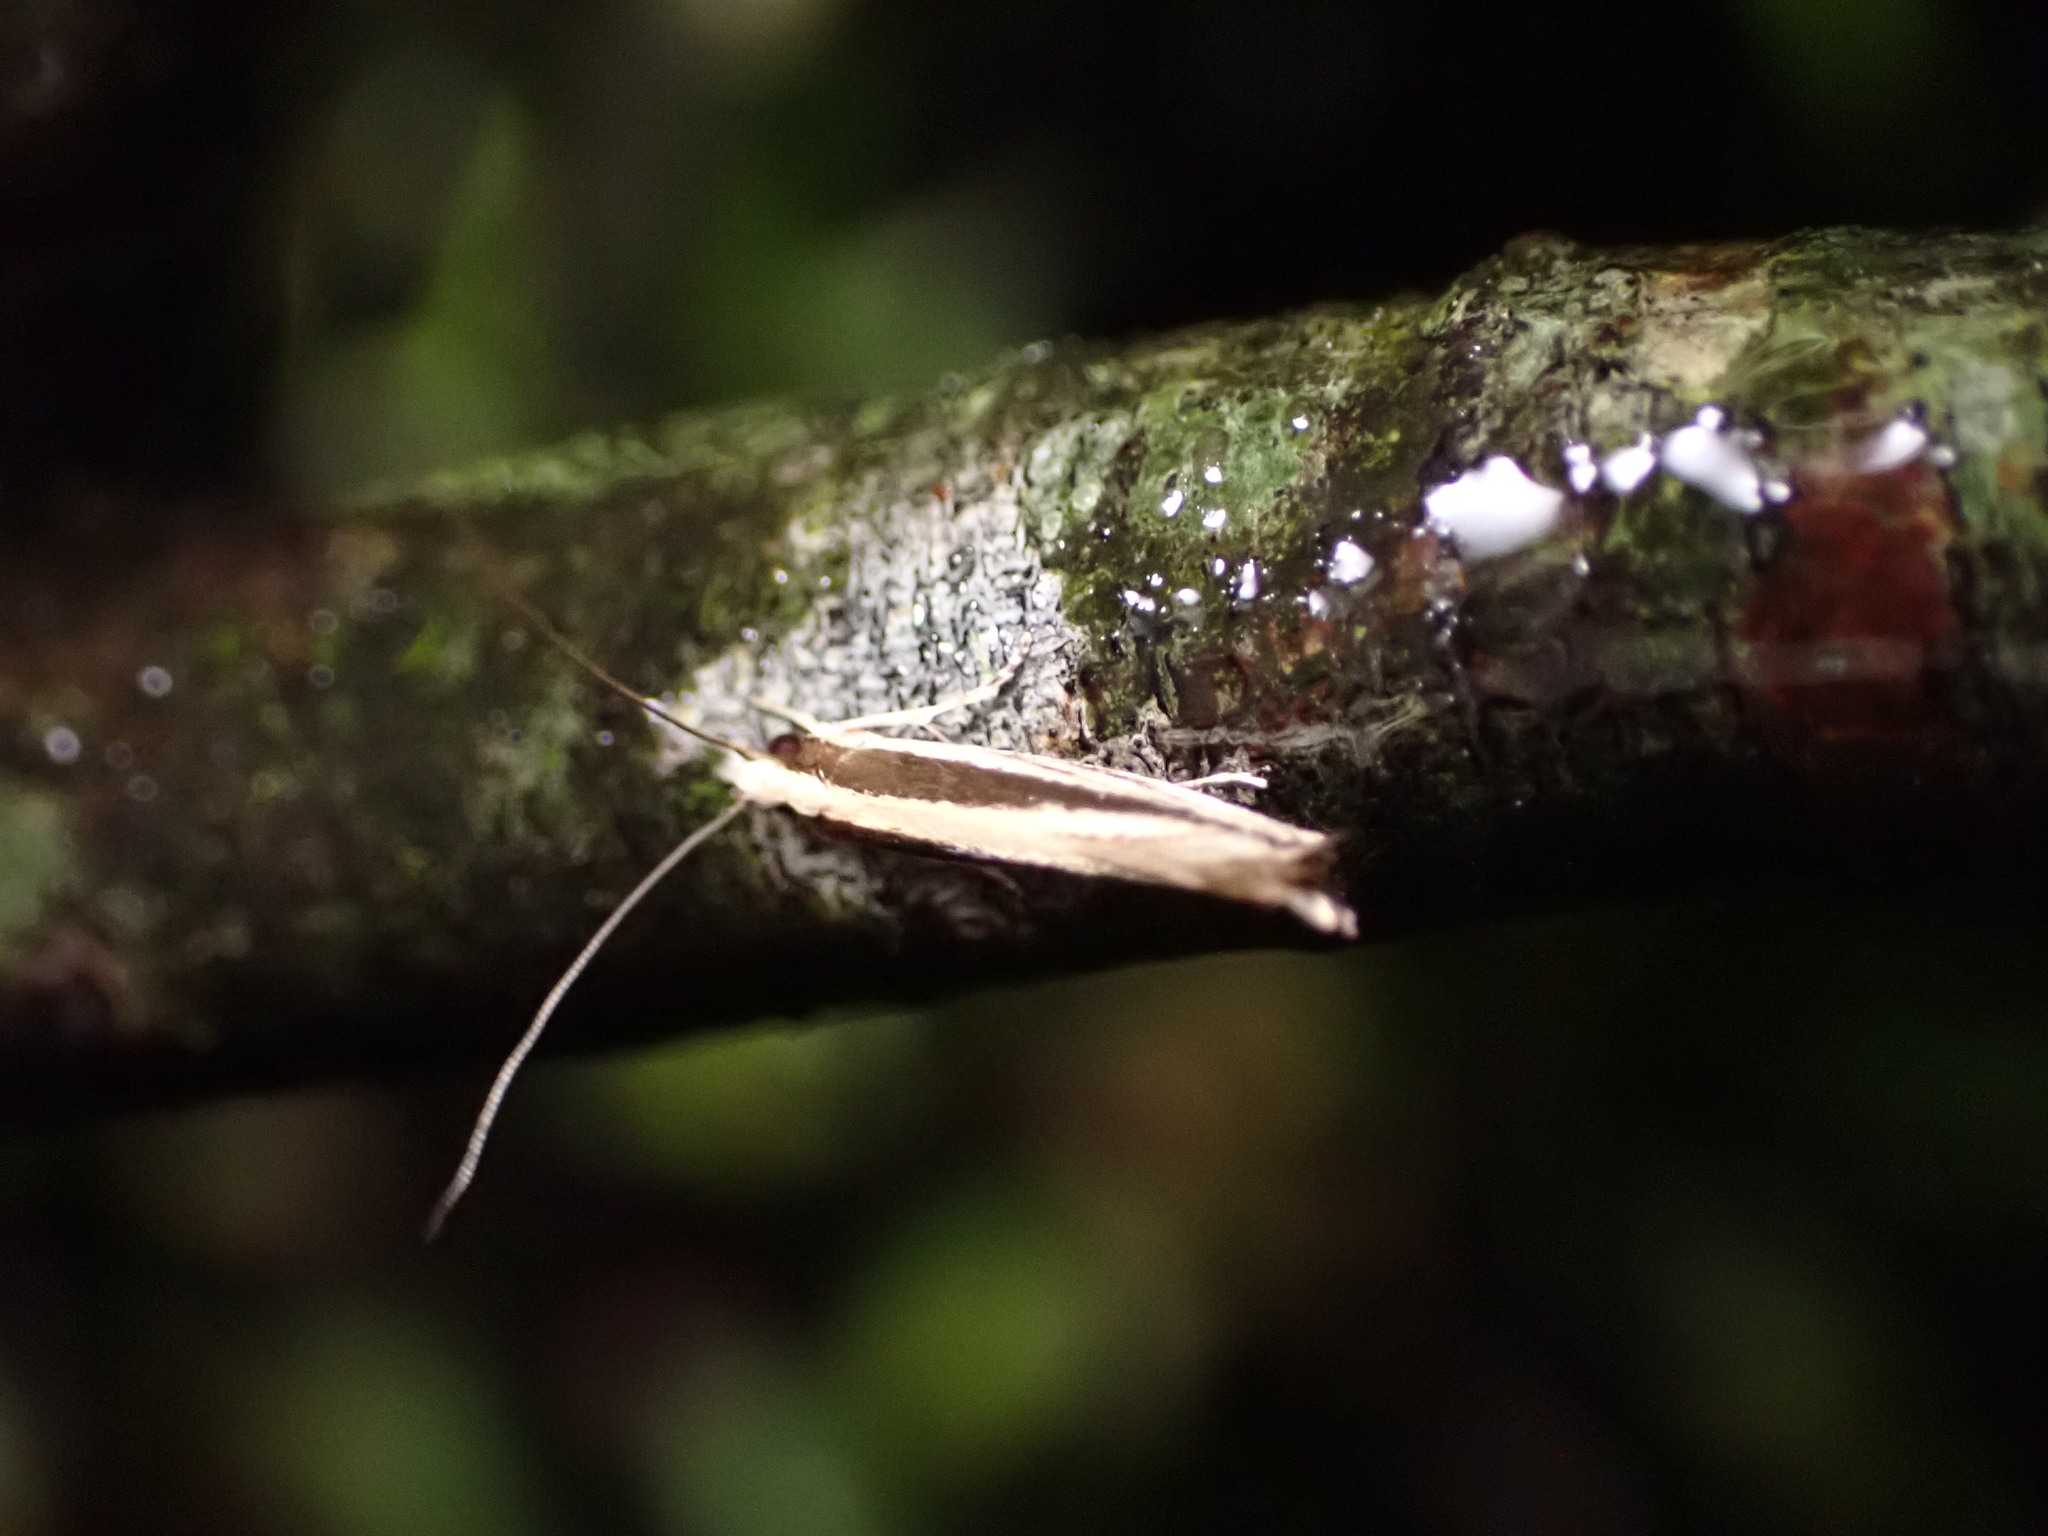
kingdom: Animalia
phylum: Arthropoda
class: Insecta
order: Lepidoptera
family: Tineidae
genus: Erechthias
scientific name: Erechthias stilbella
